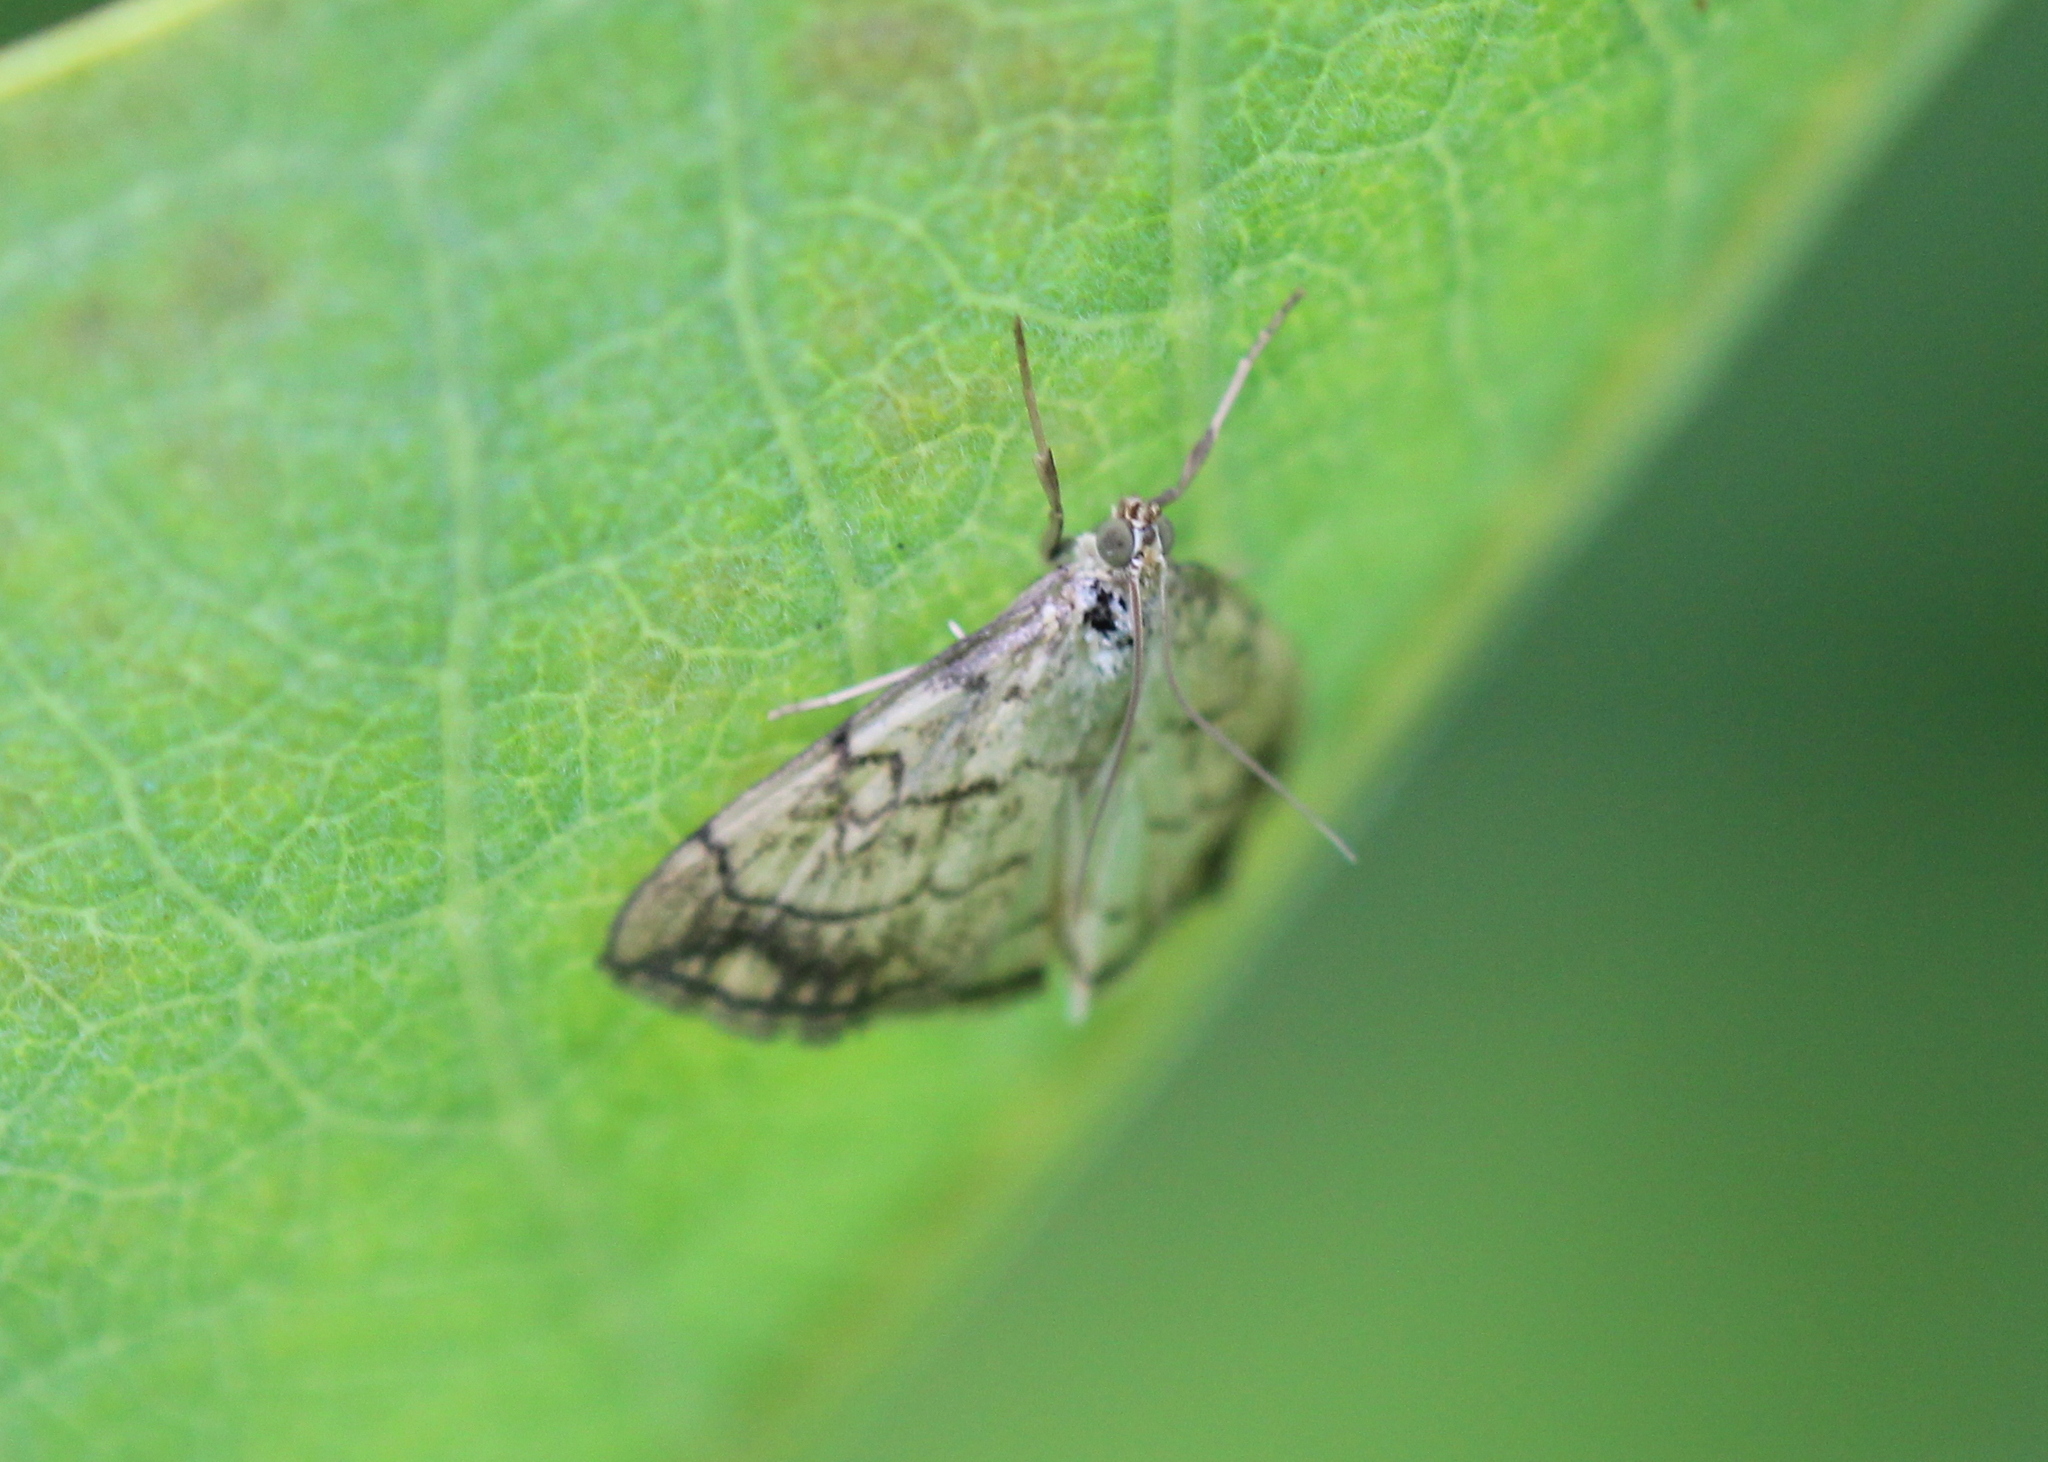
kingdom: Animalia
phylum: Arthropoda
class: Insecta
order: Lepidoptera
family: Crambidae
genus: Evergestis
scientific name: Evergestis pallidata
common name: Chequered pearl
